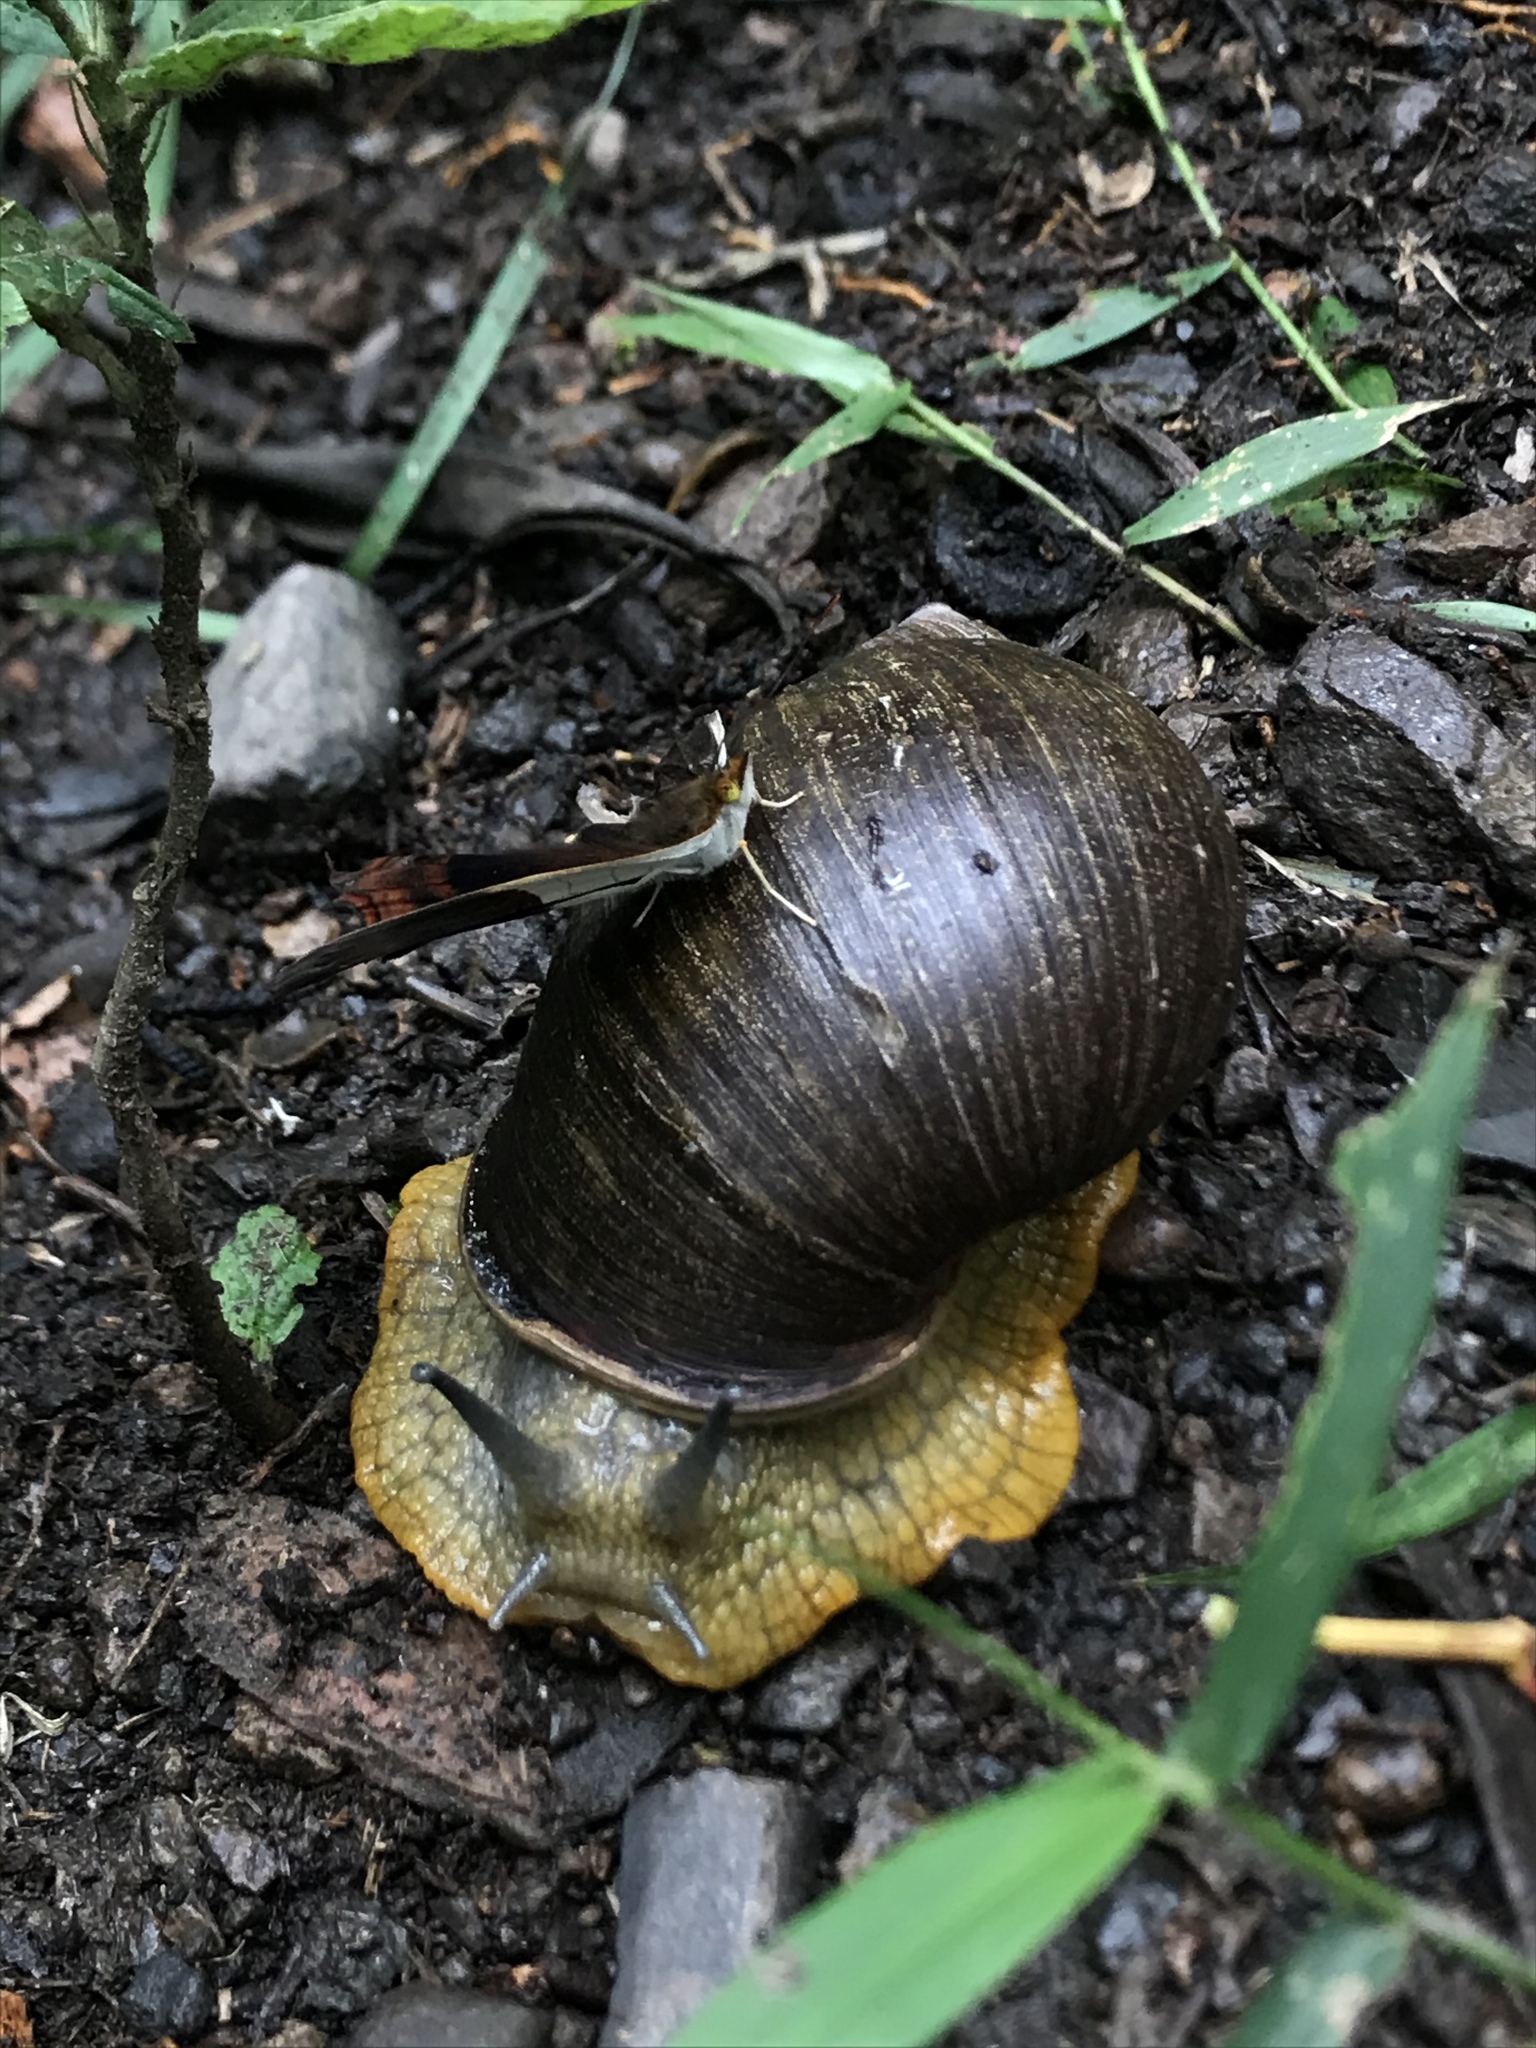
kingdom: Animalia
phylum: Mollusca
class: Gastropoda
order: Stylommatophora
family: Amphibulimidae
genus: Plekocheilus
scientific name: Plekocheilus gibbonius
